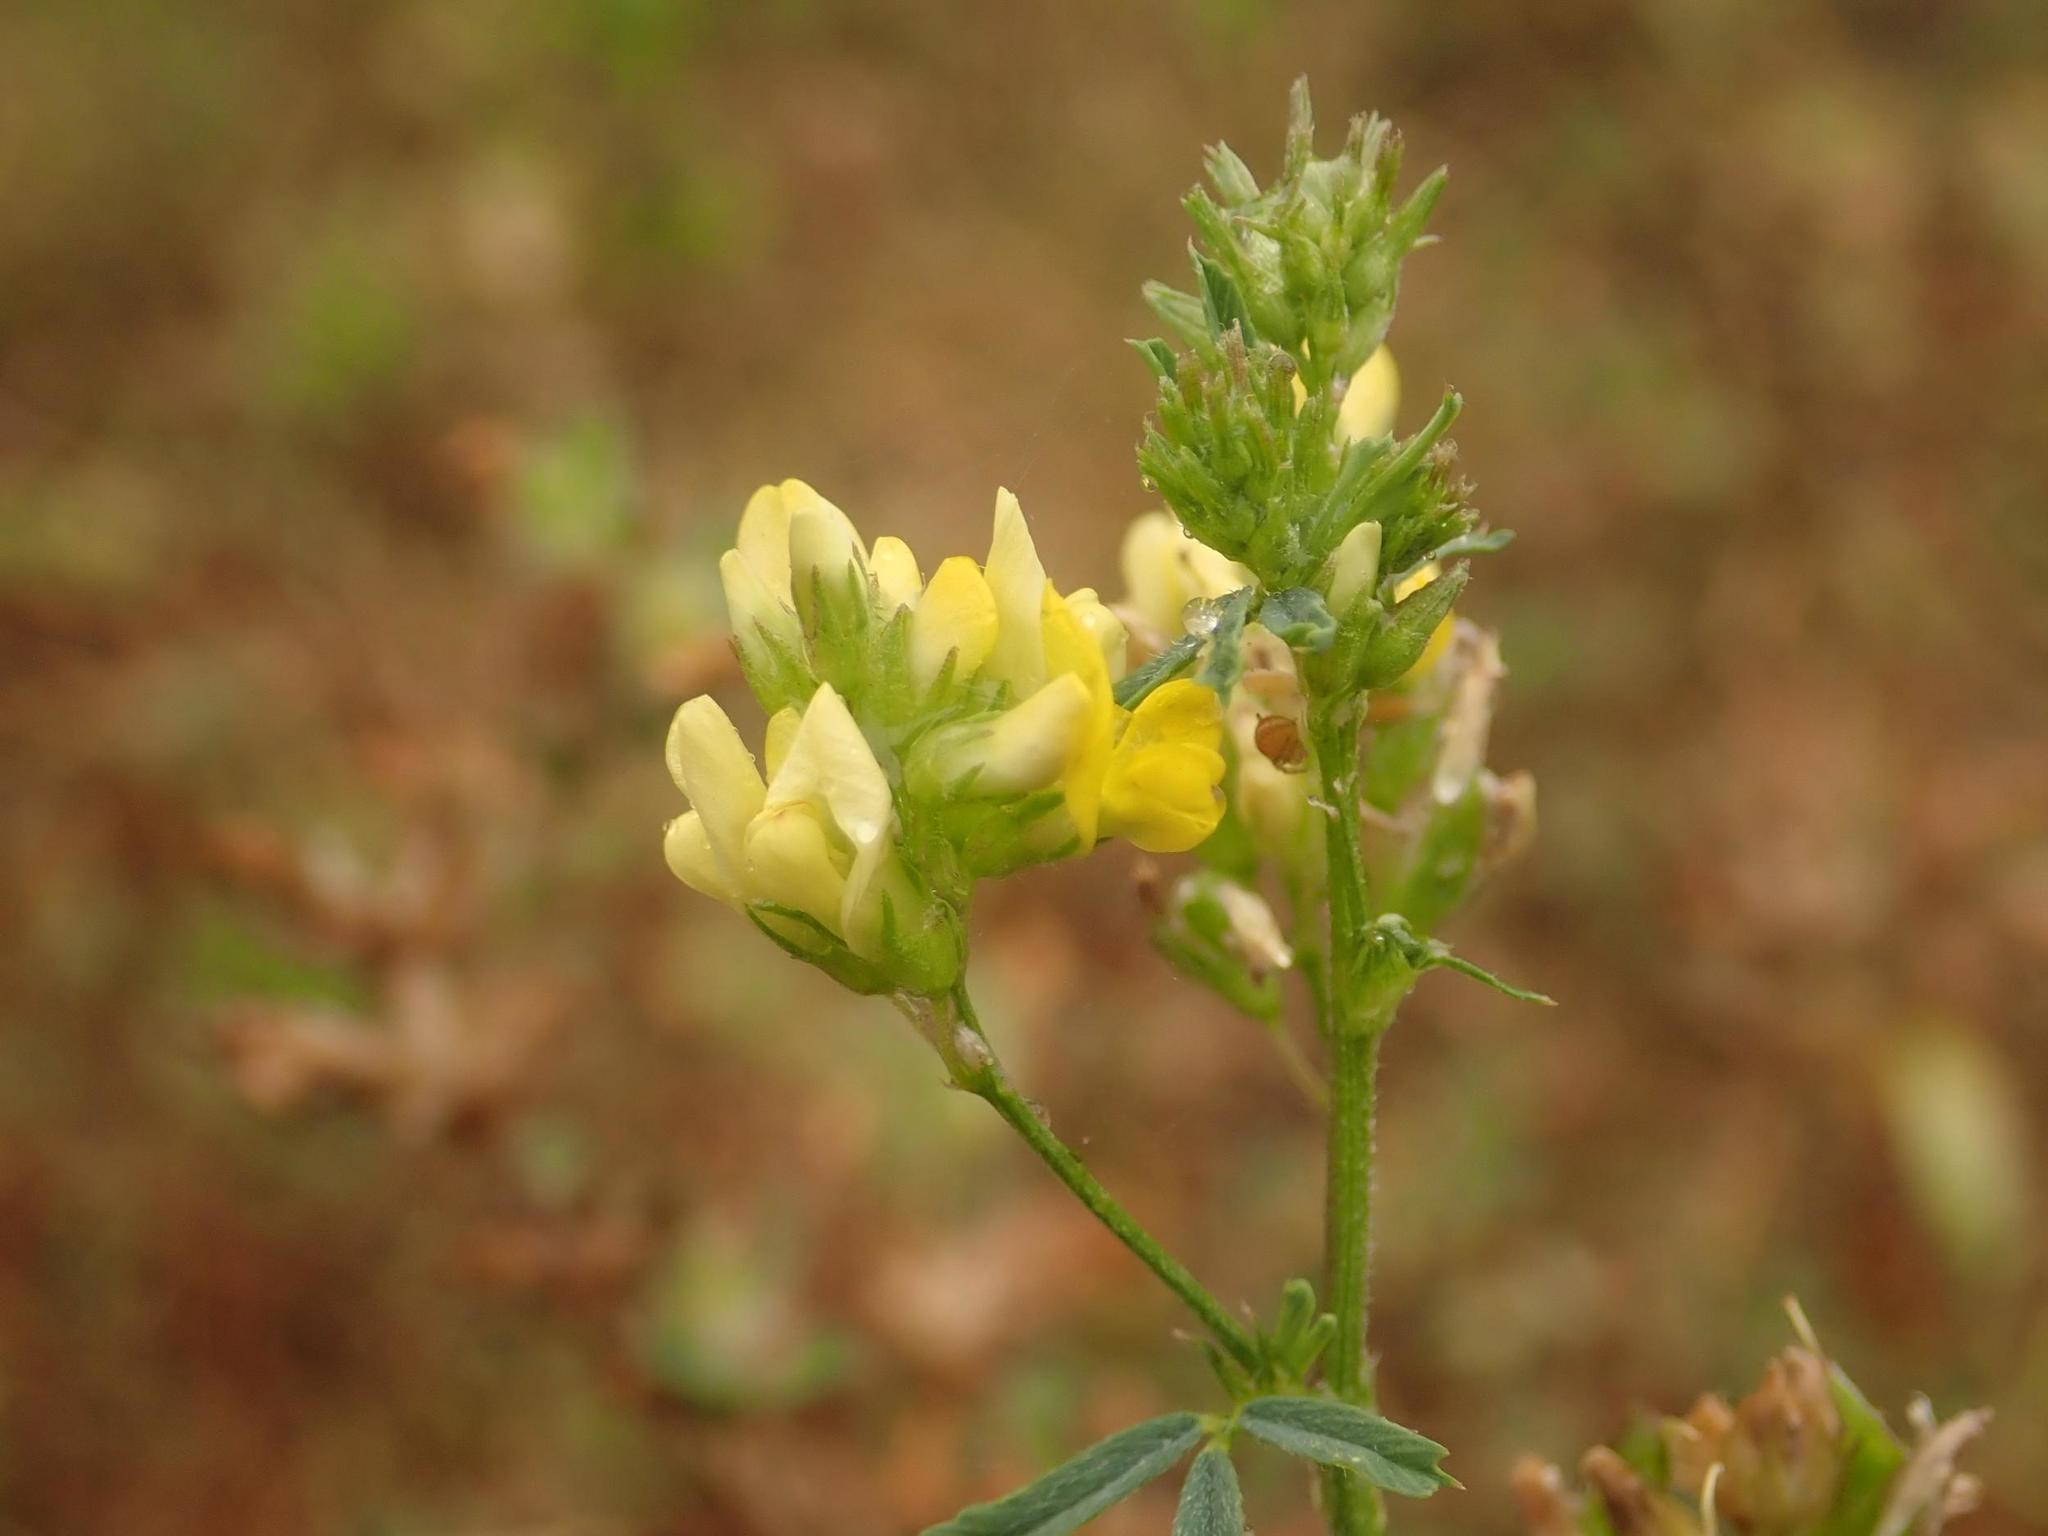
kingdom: Plantae
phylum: Tracheophyta
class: Magnoliopsida
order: Fabales
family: Fabaceae
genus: Medicago
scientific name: Medicago falcata
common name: Sickle medick
